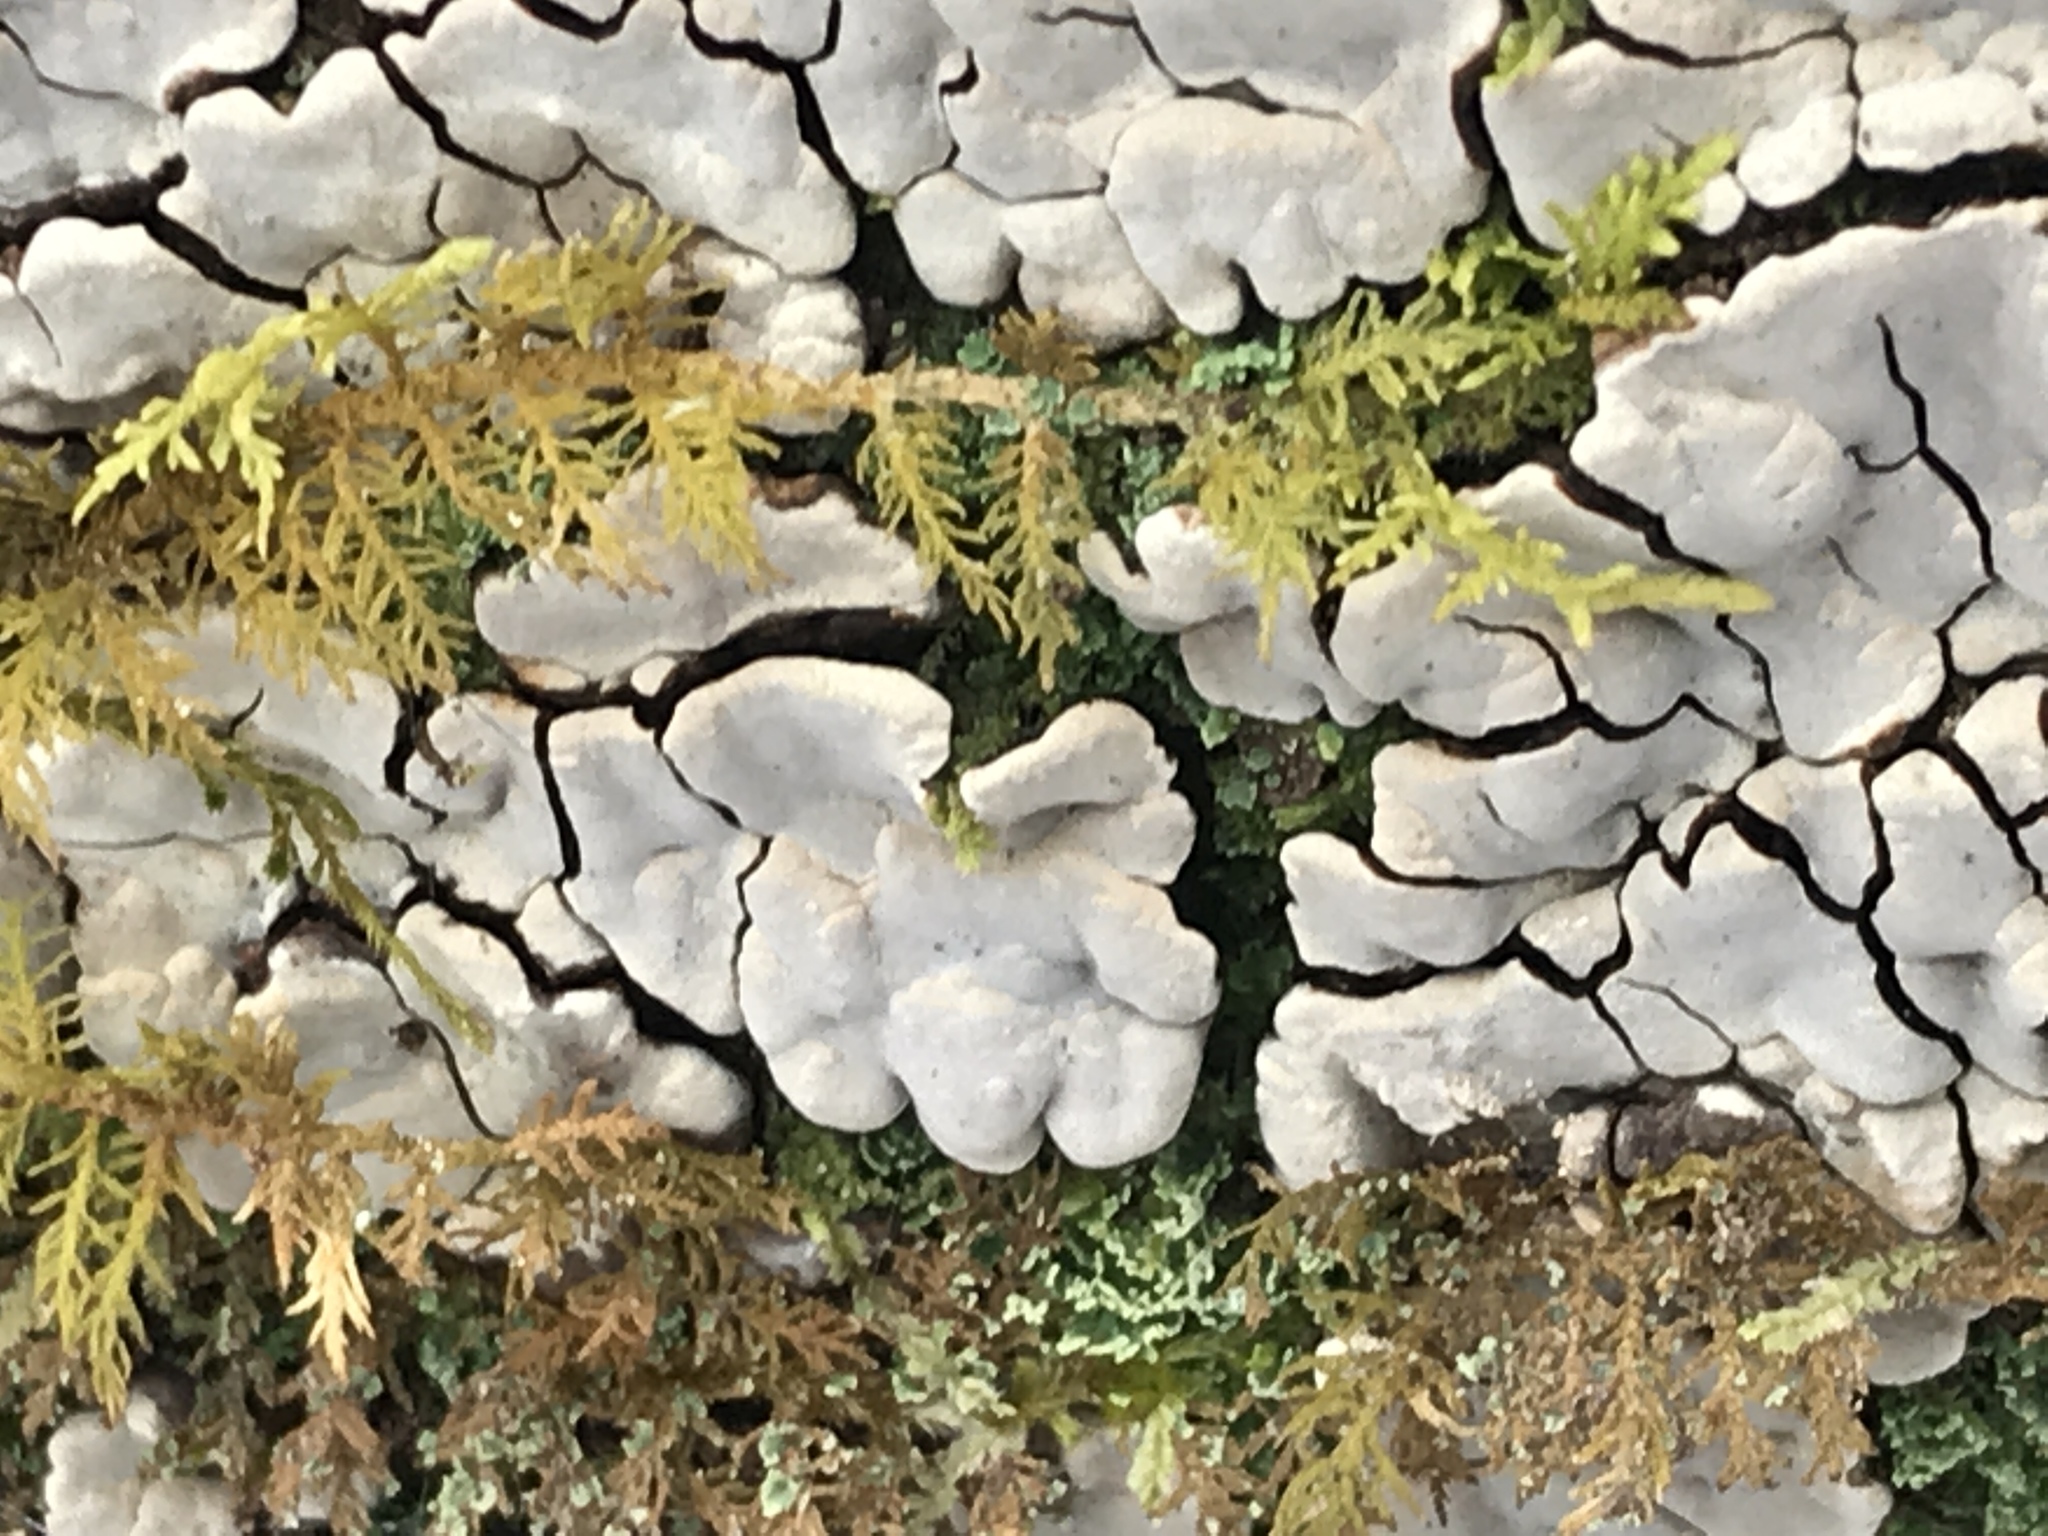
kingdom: Fungi
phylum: Basidiomycota
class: Agaricomycetes
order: Russulales
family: Stereaceae
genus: Xylobolus
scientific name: Xylobolus frustulatus
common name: Ceramic parchment
